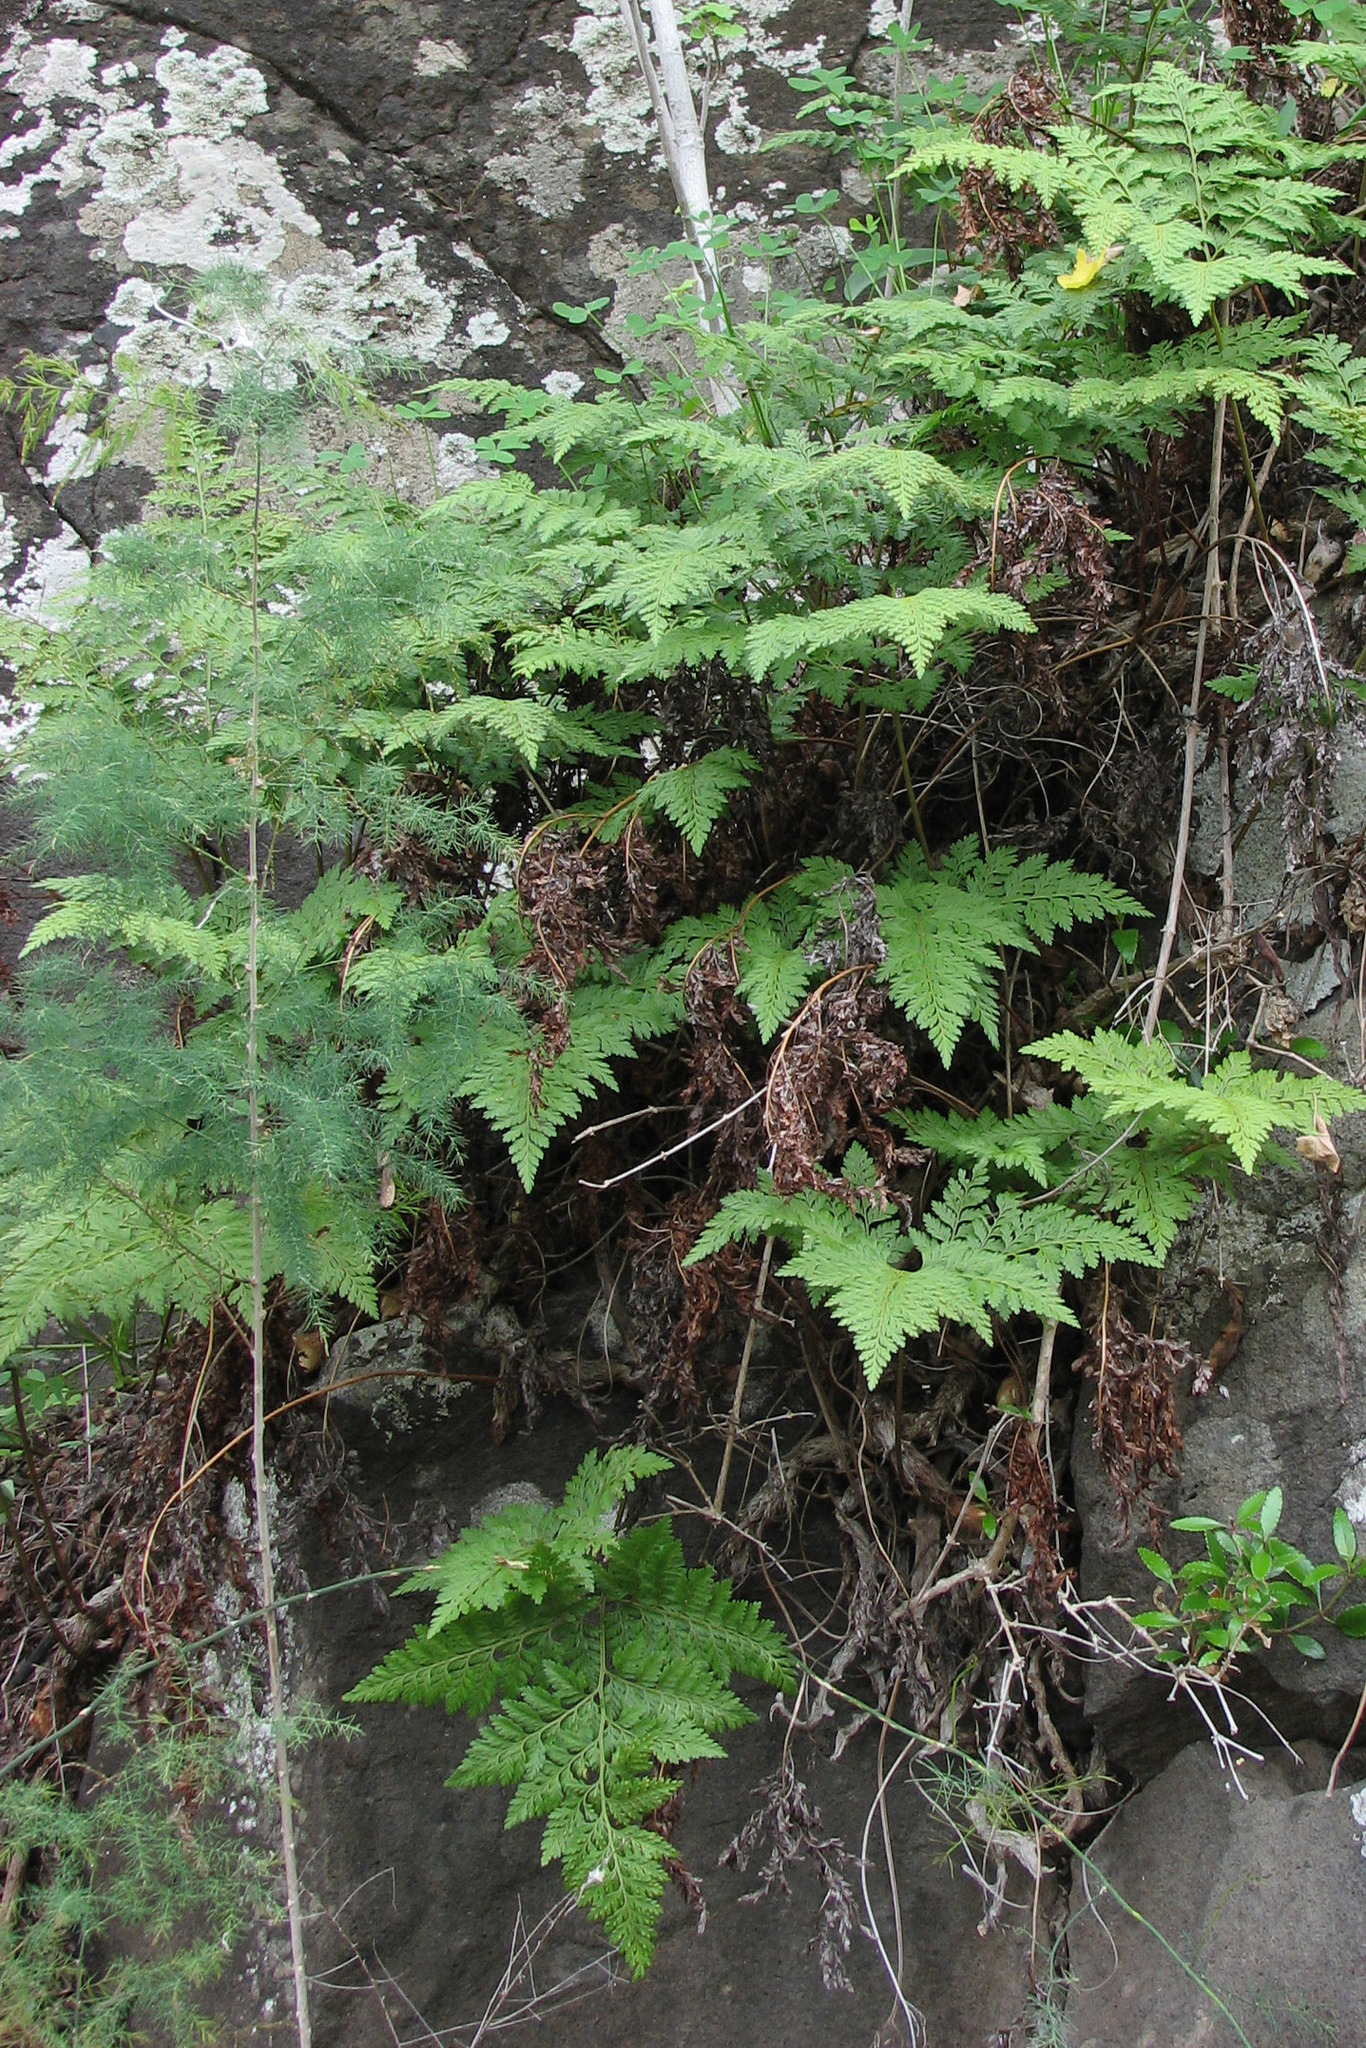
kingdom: Plantae
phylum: Tracheophyta
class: Polypodiopsida
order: Polypodiales
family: Davalliaceae
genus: Davallia
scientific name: Davallia canariensis
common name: Hare's-foot fern
